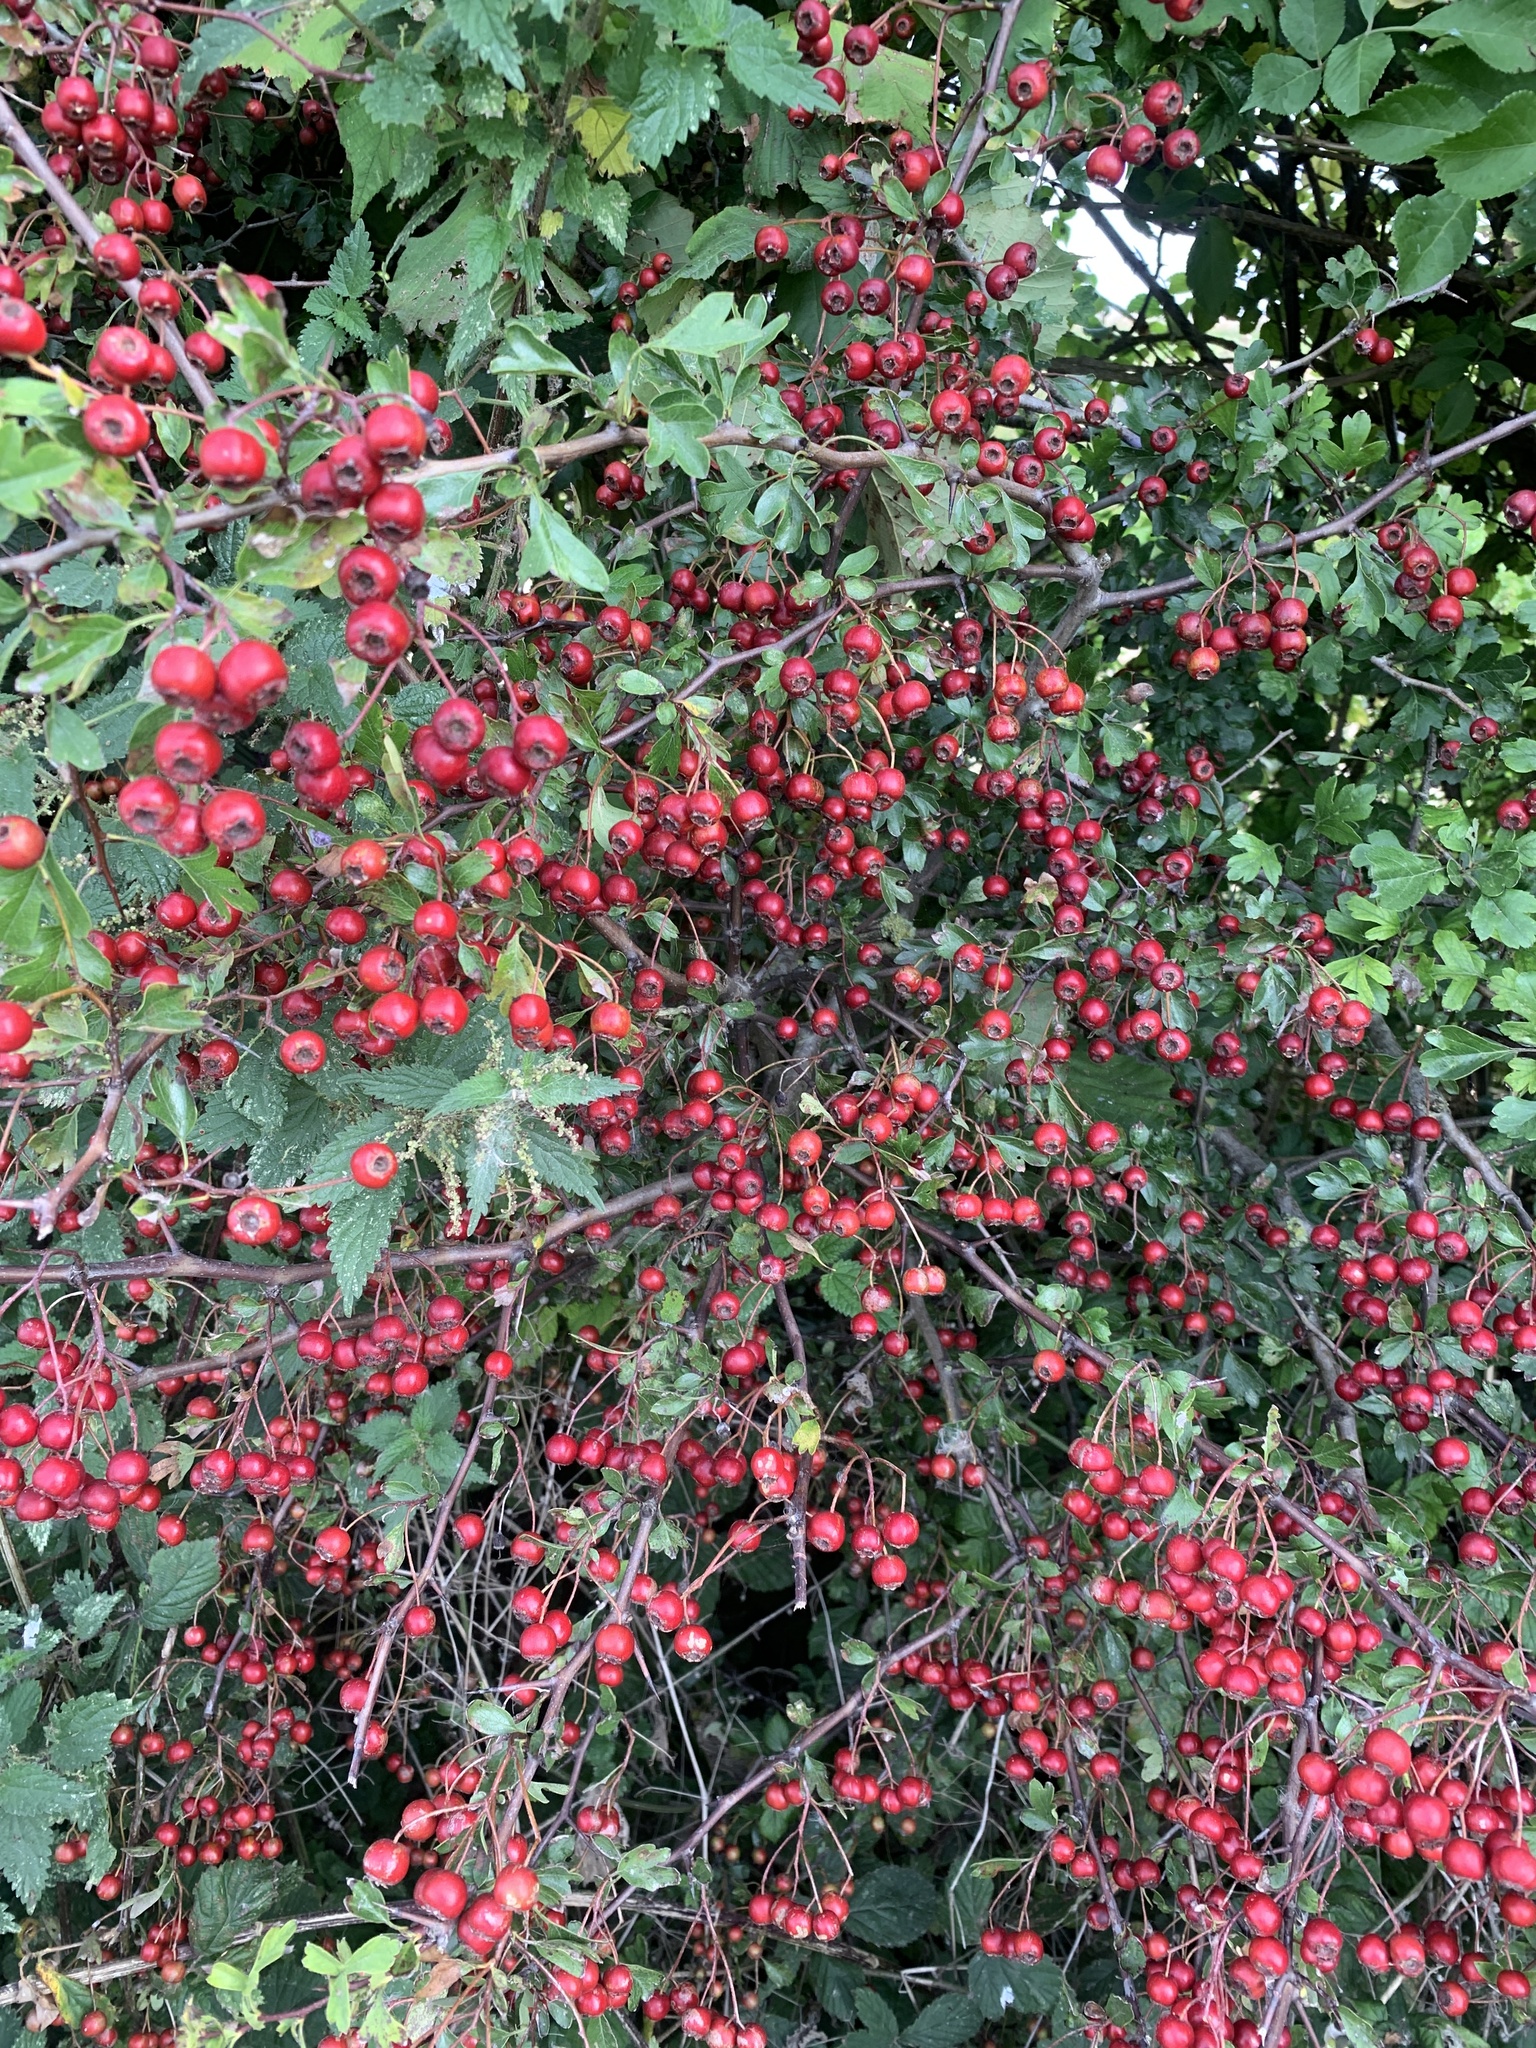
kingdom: Plantae
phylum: Tracheophyta
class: Magnoliopsida
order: Rosales
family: Rosaceae
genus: Crataegus
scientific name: Crataegus monogyna
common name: Hawthorn
